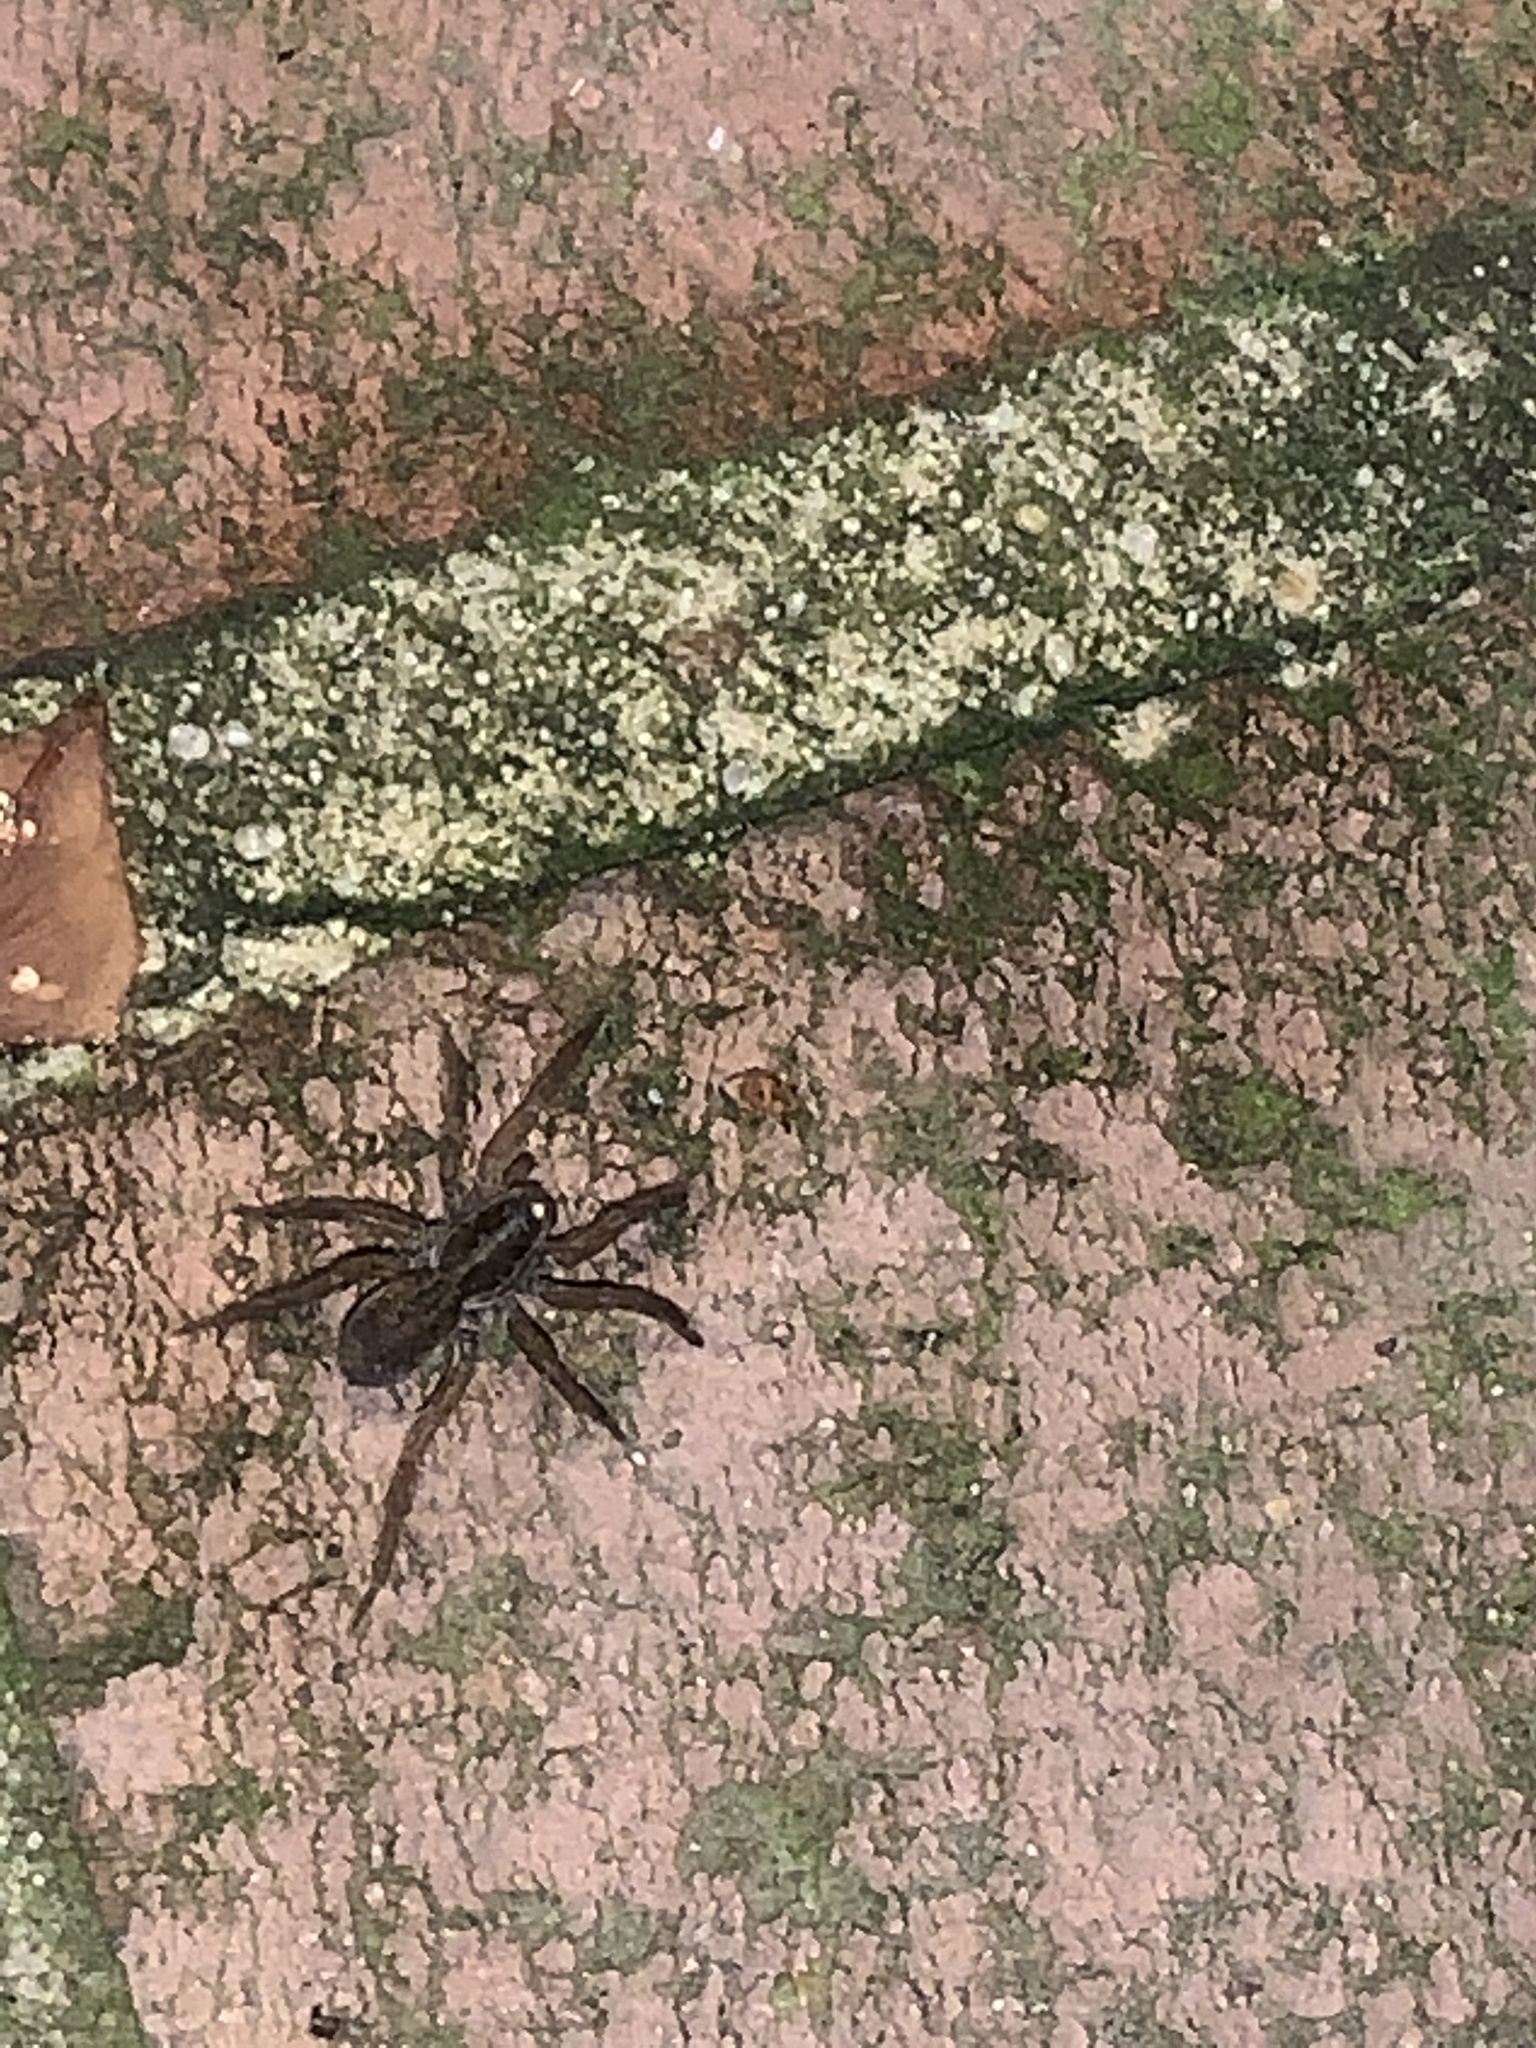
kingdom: Animalia
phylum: Arthropoda
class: Arachnida
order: Araneae
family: Lycosidae
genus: Tigrosa
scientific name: Tigrosa annexa
